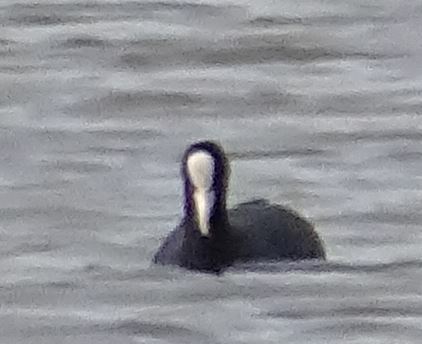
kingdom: Animalia
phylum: Chordata
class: Aves
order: Gruiformes
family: Rallidae
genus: Fulica
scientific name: Fulica atra
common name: Eurasian coot
